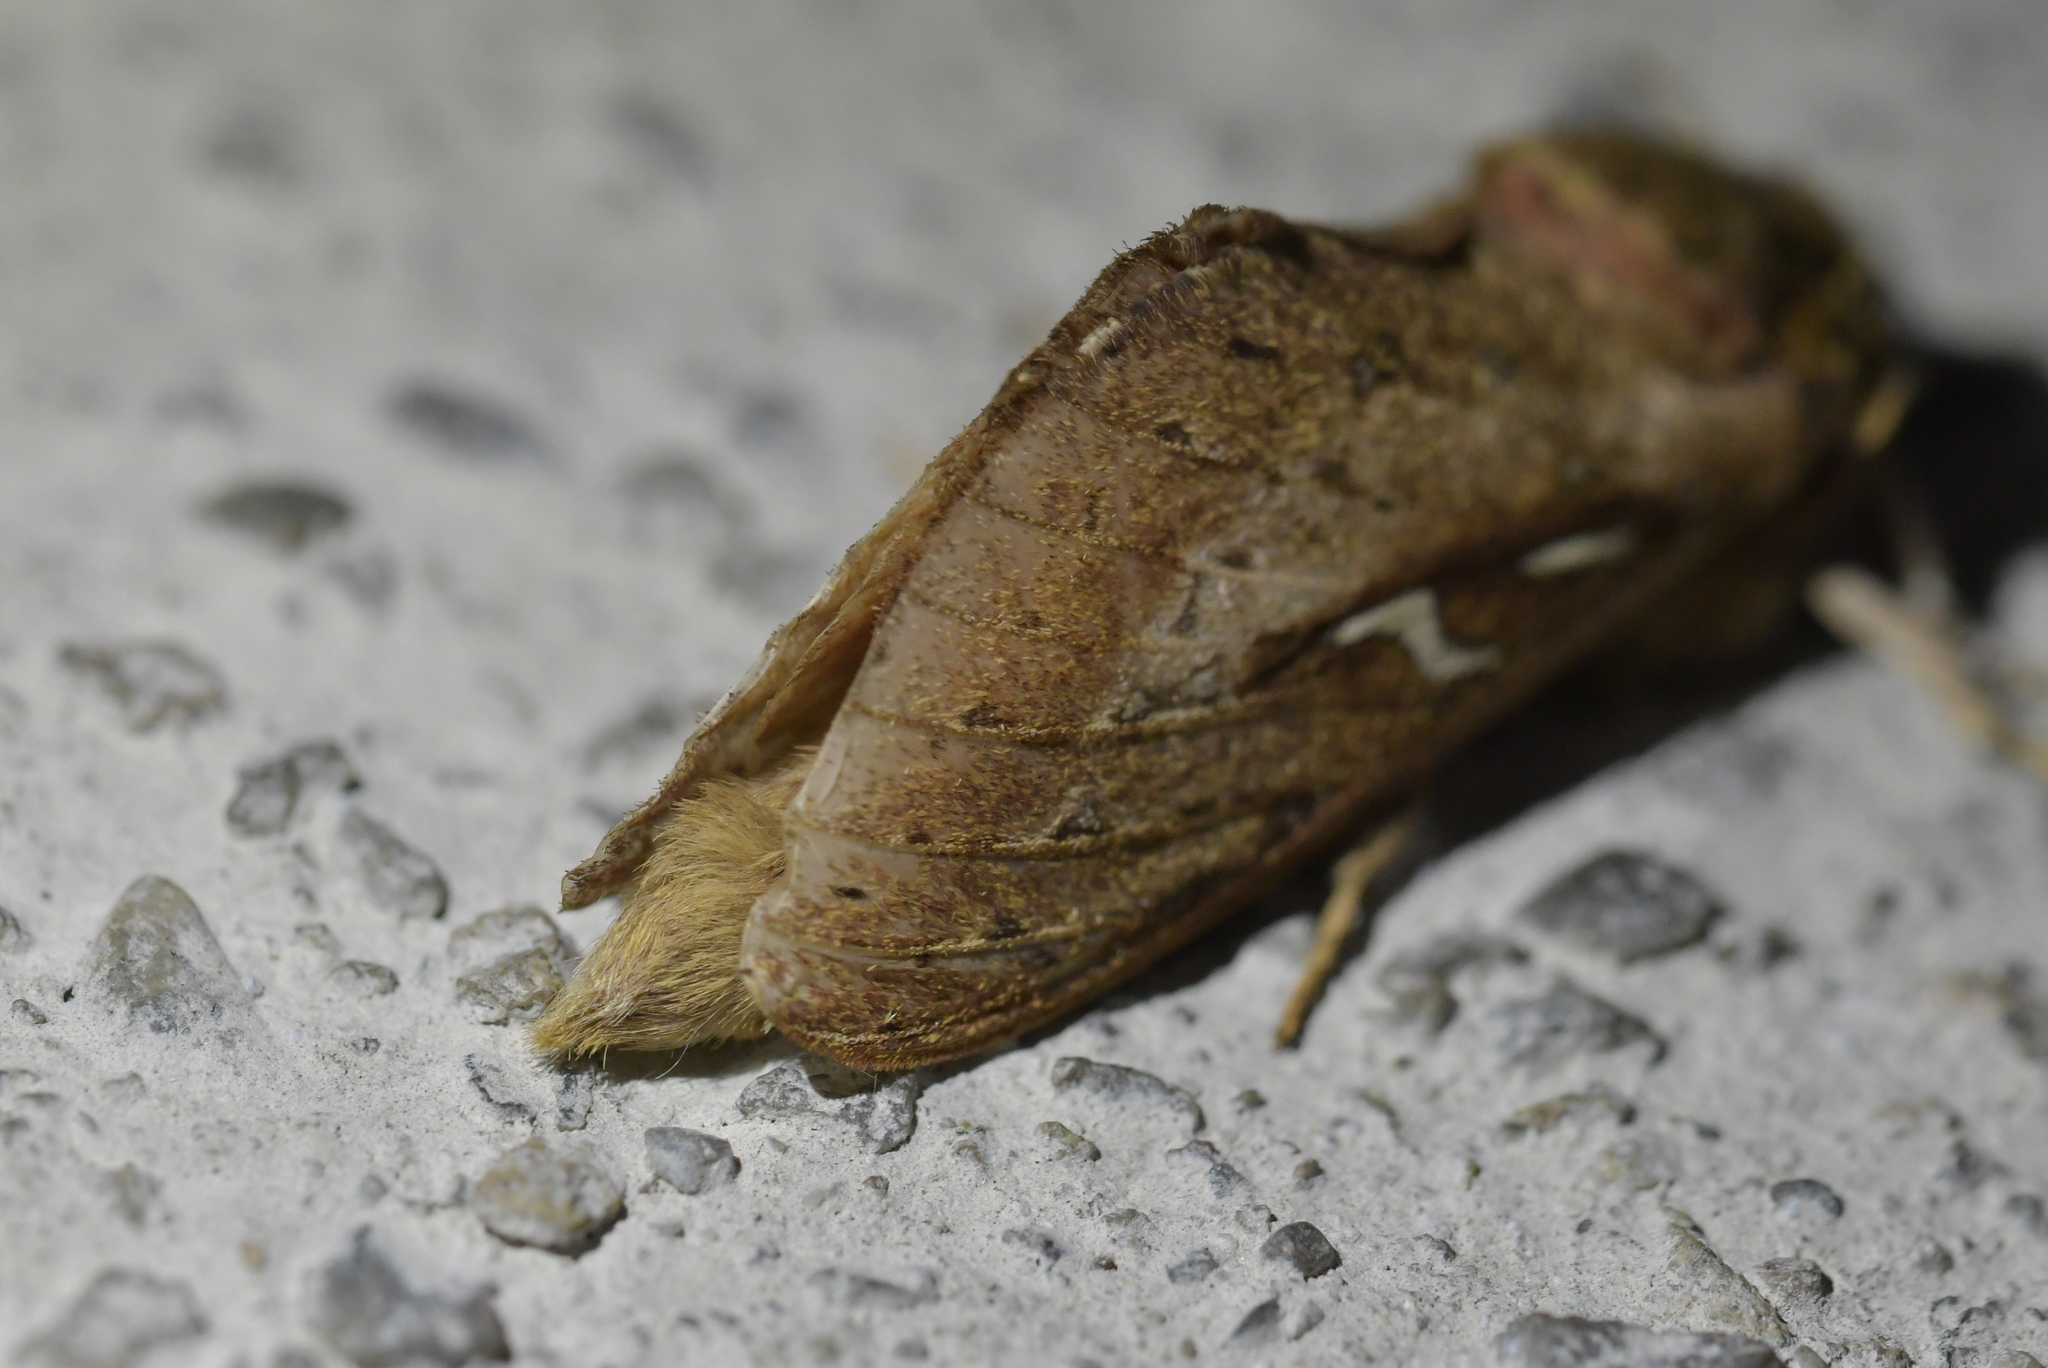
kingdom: Animalia
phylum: Arthropoda
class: Insecta
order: Lepidoptera
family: Hepialidae
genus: Wiseana
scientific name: Wiseana signata
